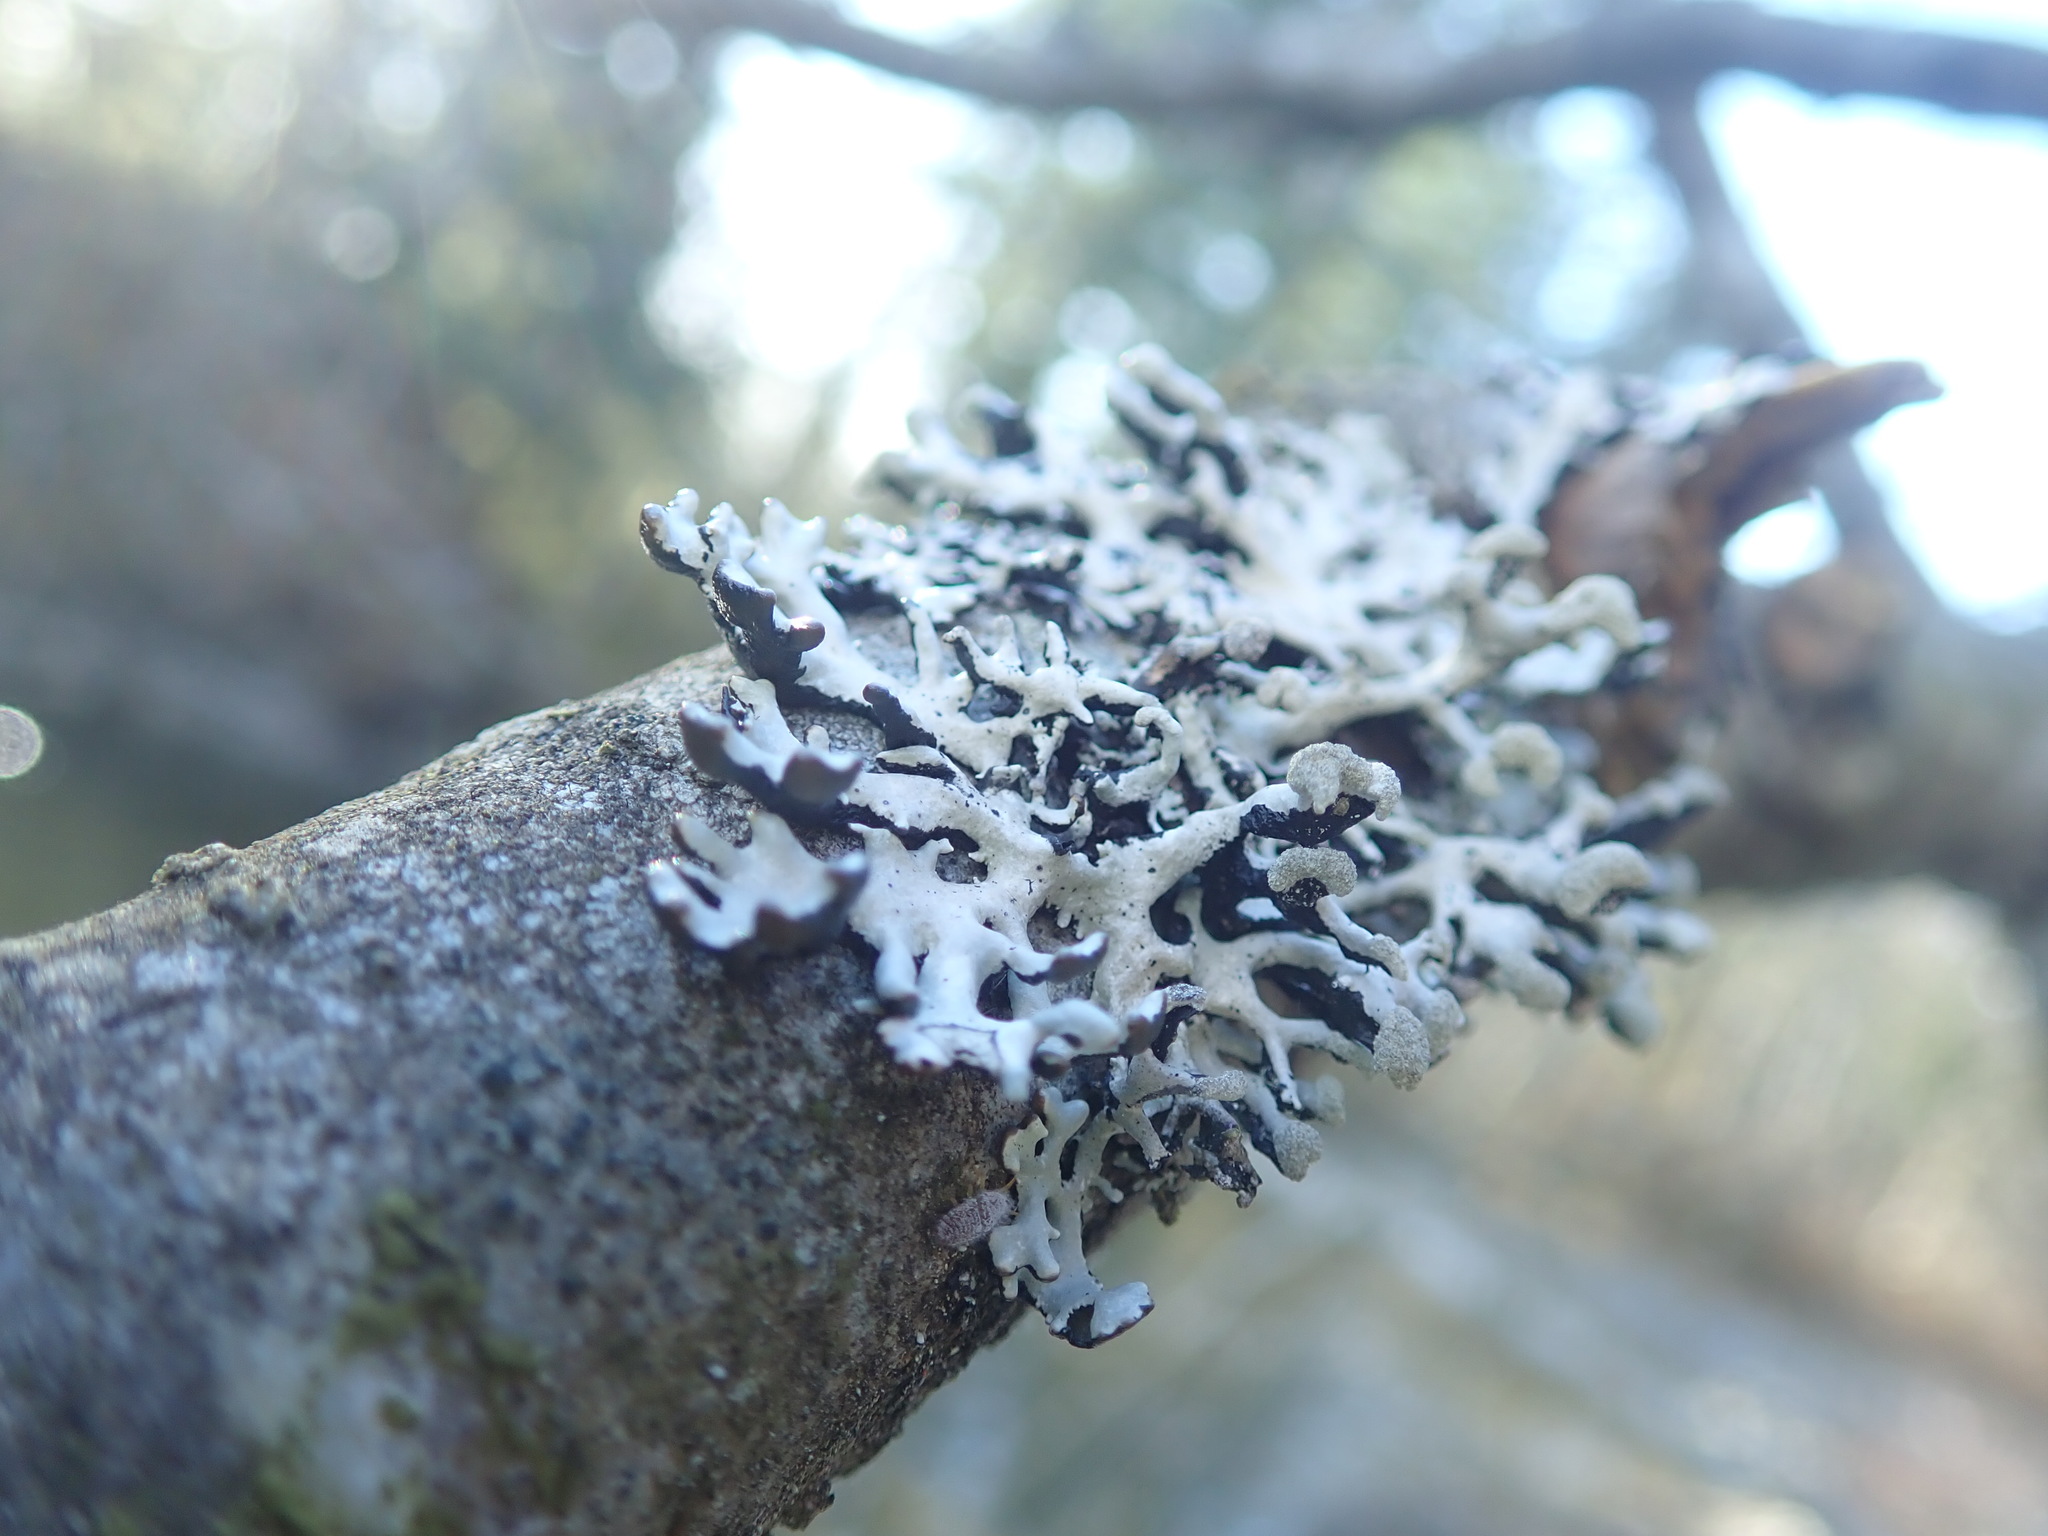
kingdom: Fungi
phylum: Ascomycota
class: Lecanoromycetes
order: Lecanorales
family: Parmeliaceae
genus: Hypogymnia
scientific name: Hypogymnia physodes
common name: Dark crottle
